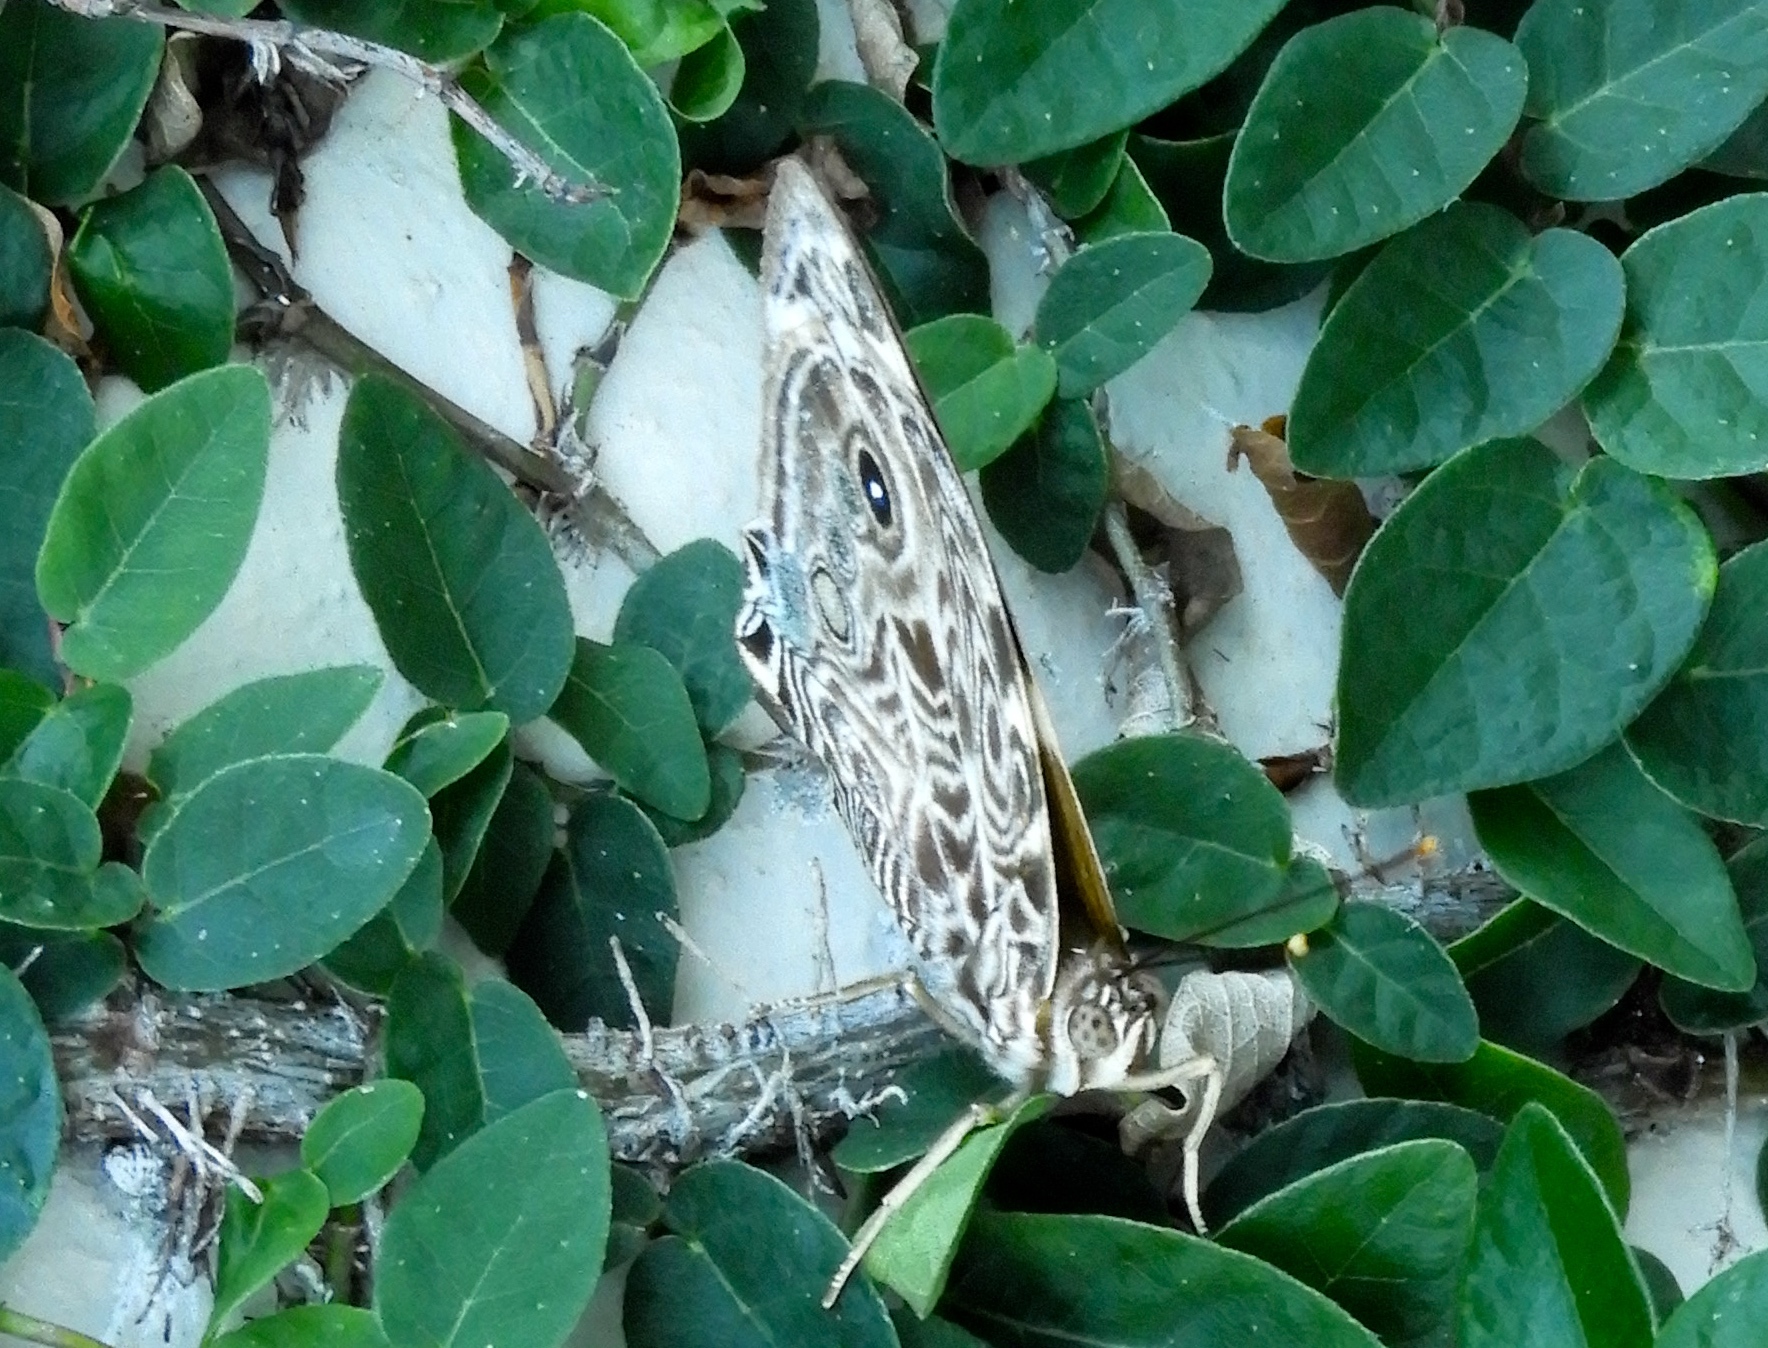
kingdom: Animalia
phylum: Arthropoda
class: Insecta
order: Lepidoptera
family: Nymphalidae
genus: Smyrna
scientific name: Smyrna blomfildia
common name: Blomfild's beauty
